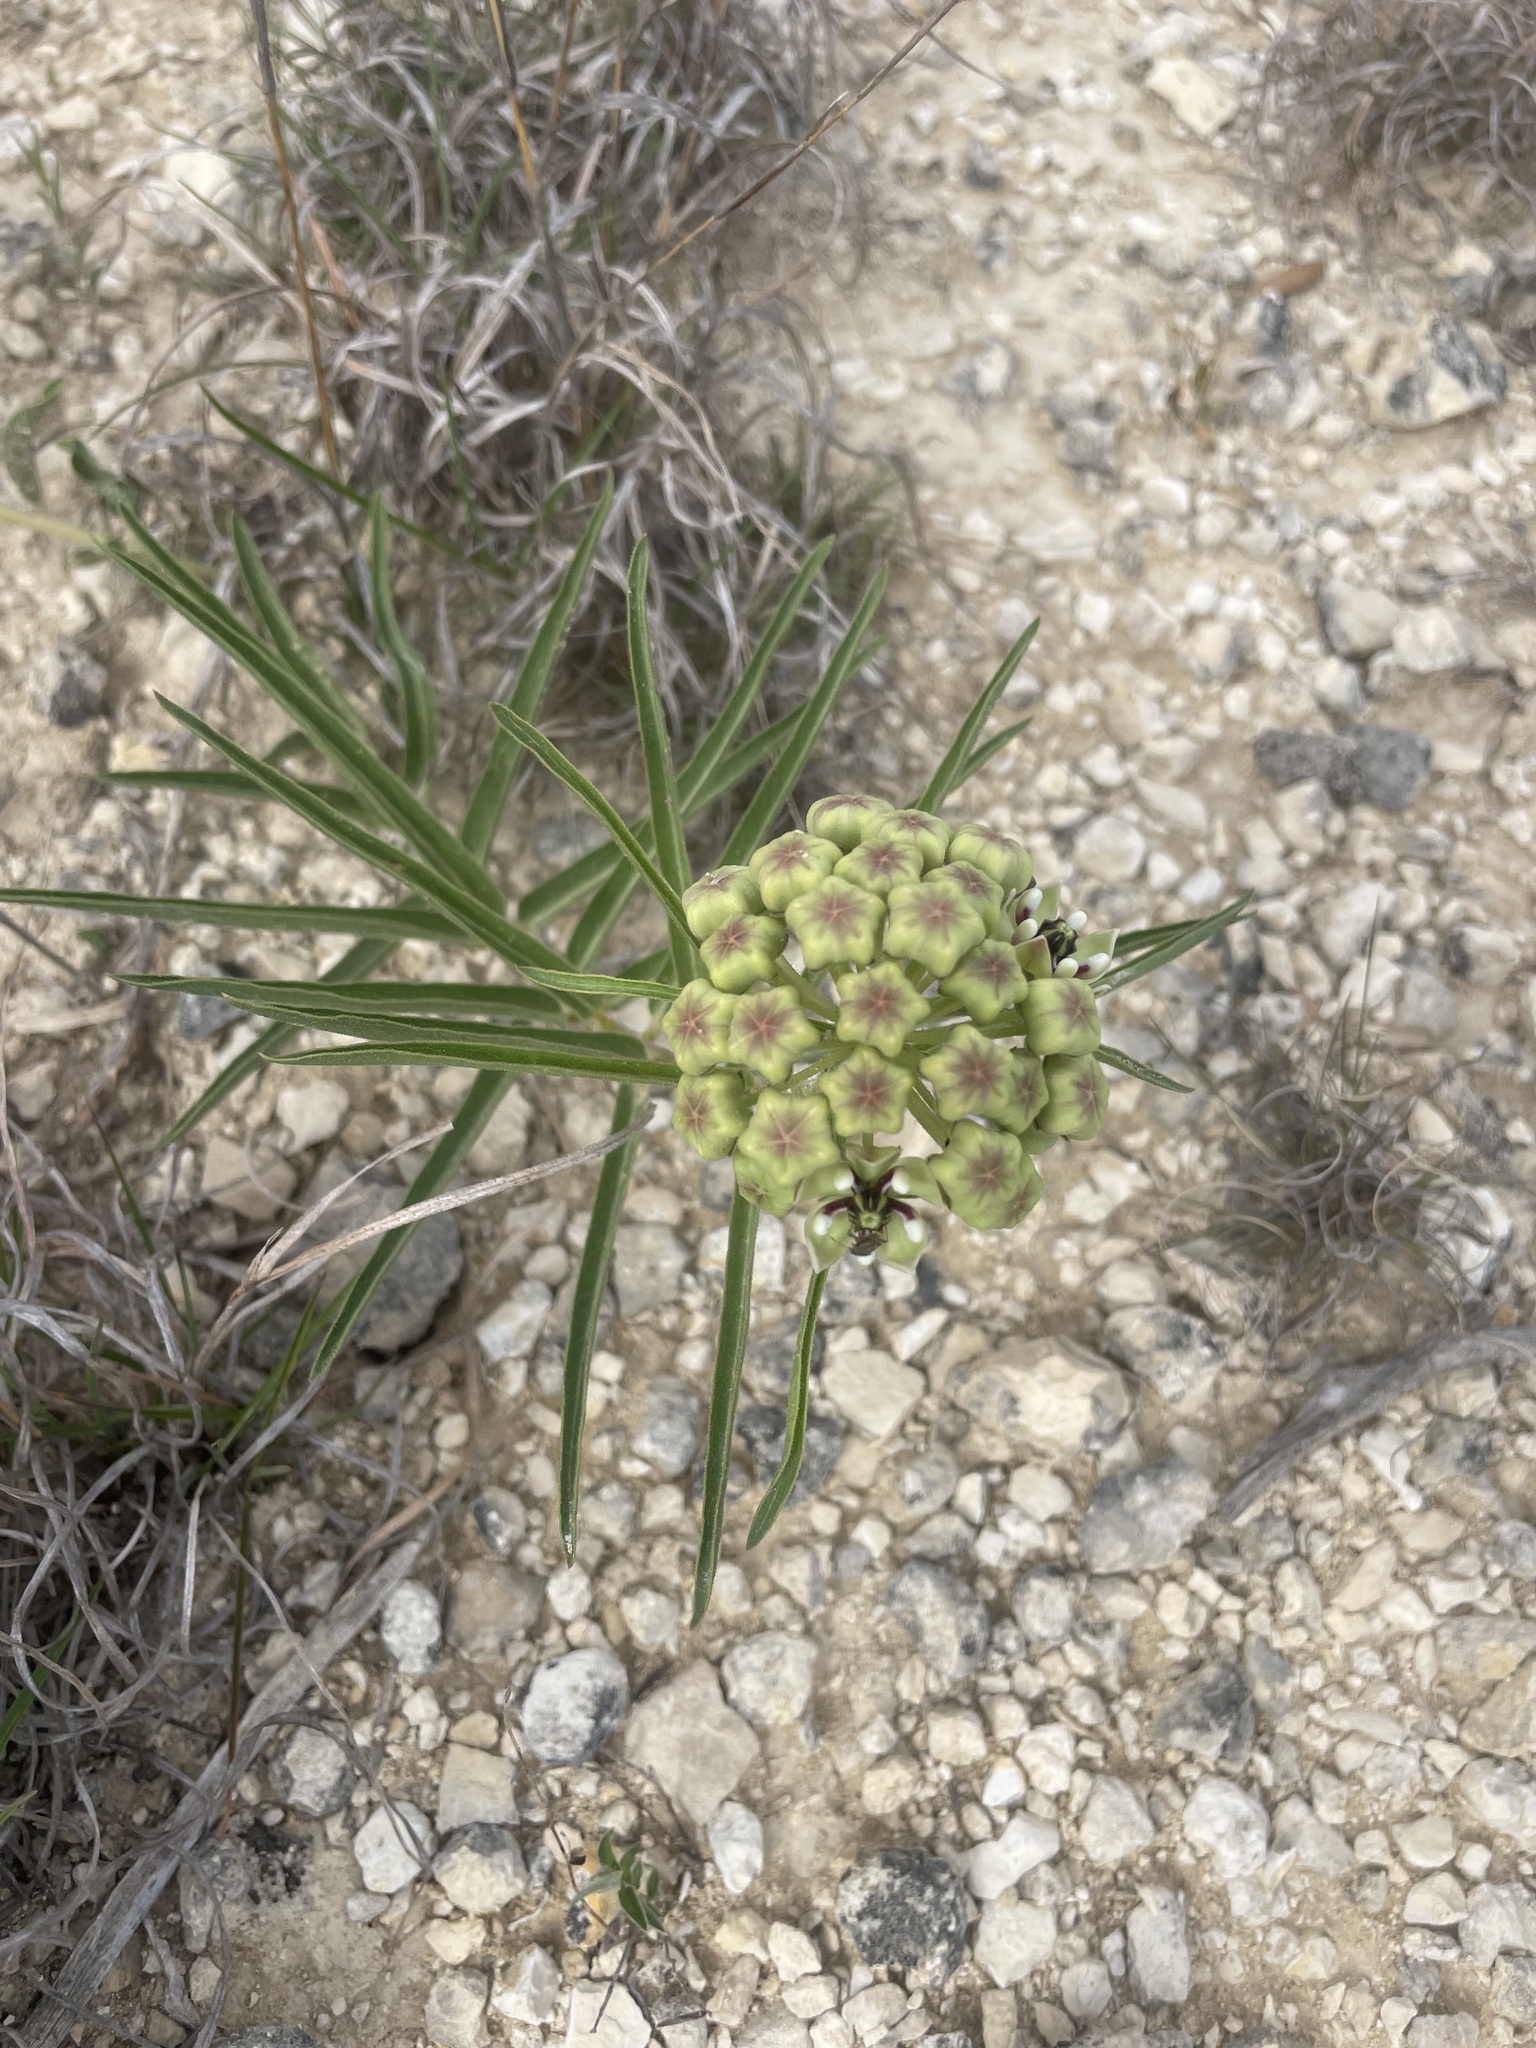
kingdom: Plantae
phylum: Tracheophyta
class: Magnoliopsida
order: Gentianales
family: Apocynaceae
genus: Asclepias
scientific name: Asclepias asperula
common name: Antelope horns
